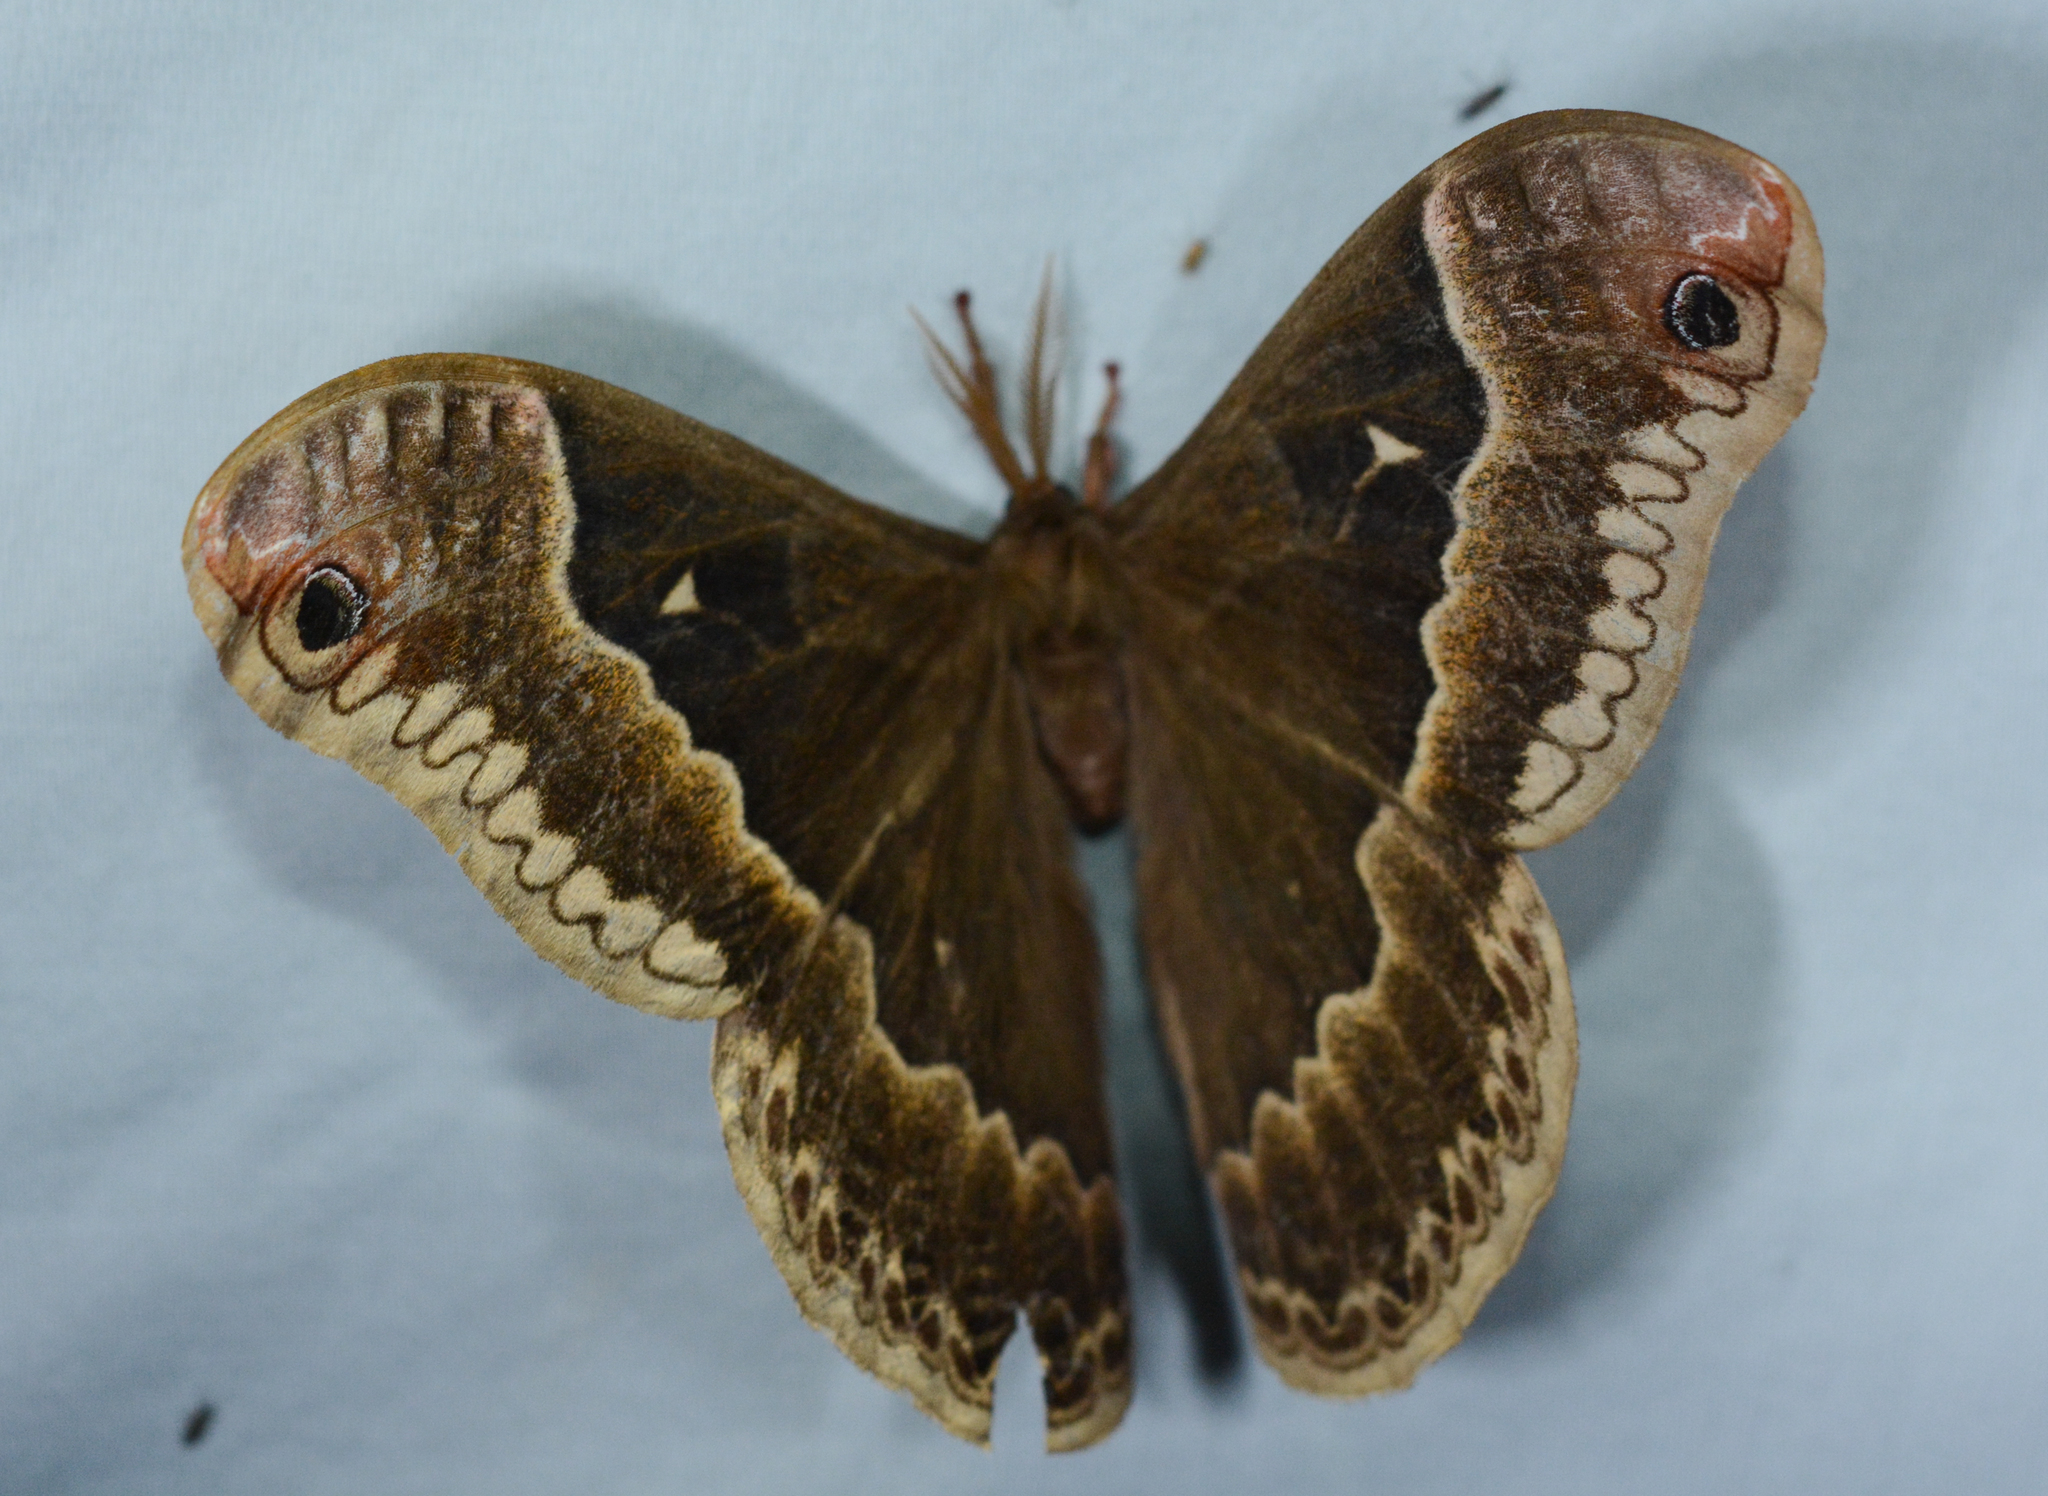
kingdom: Animalia
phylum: Arthropoda
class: Insecta
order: Lepidoptera
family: Saturniidae
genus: Callosamia
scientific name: Callosamia promethea
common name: Promethea silkmoth
